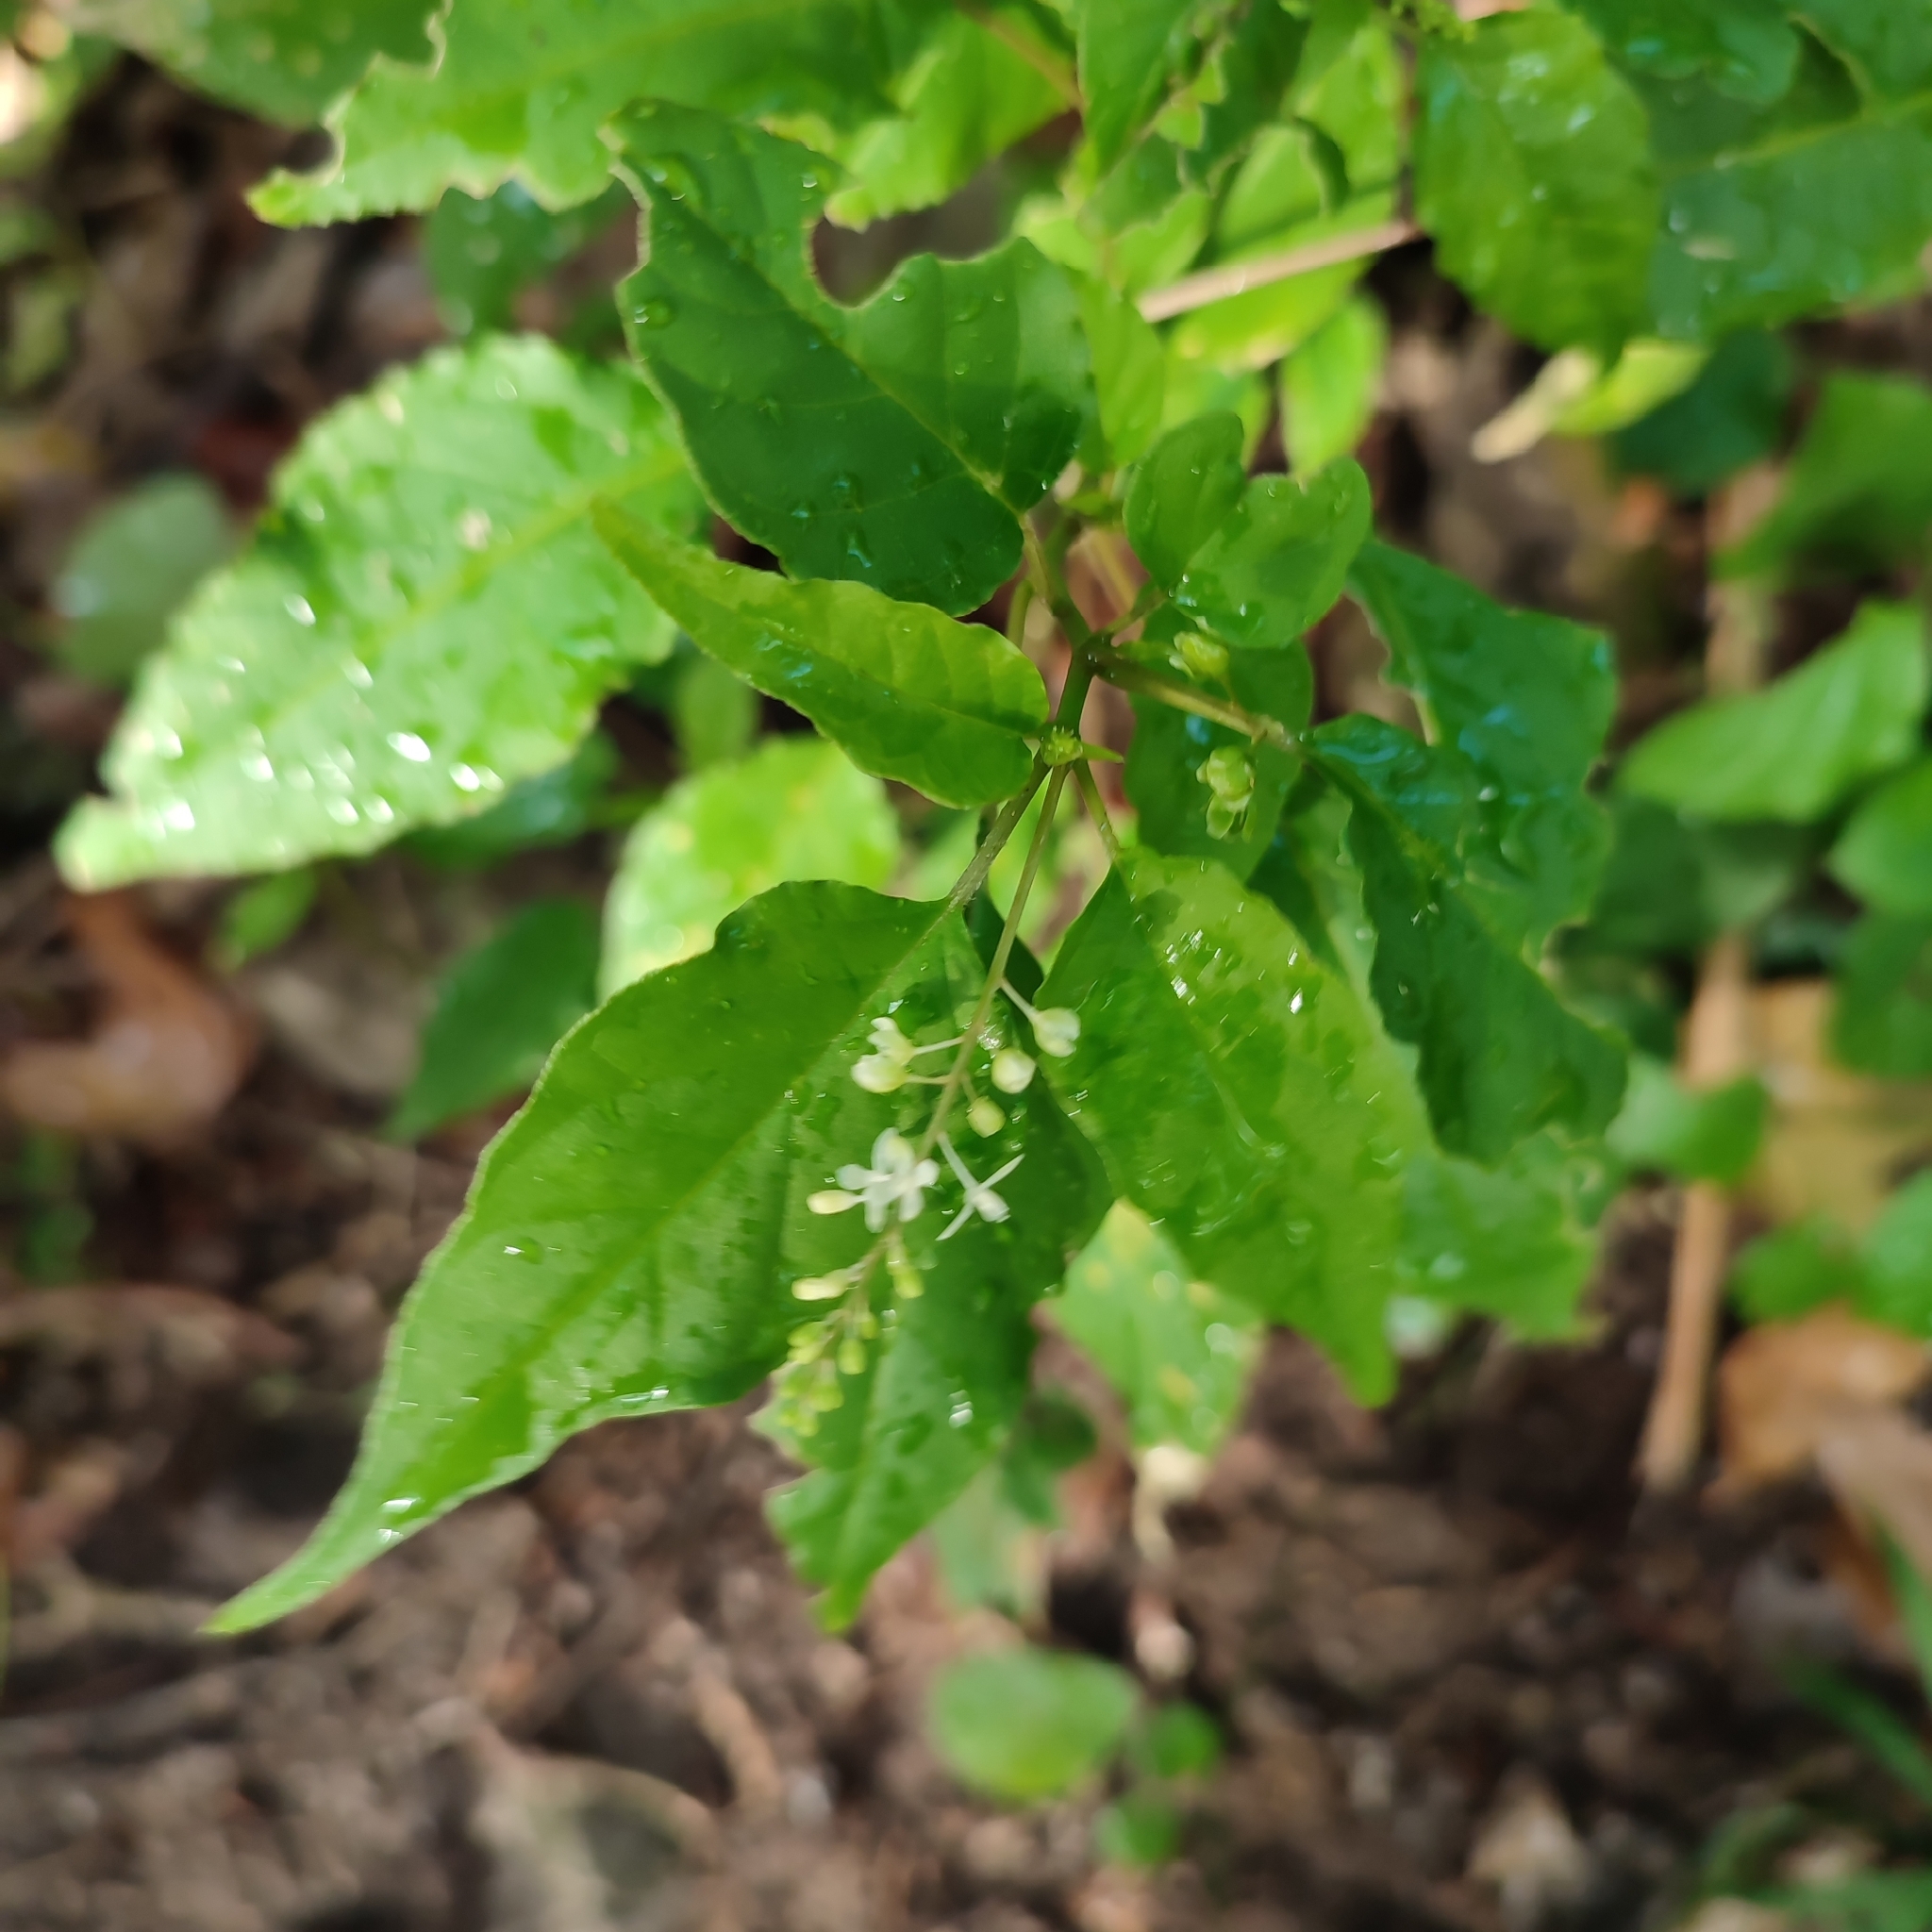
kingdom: Plantae
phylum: Tracheophyta
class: Magnoliopsida
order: Caryophyllales
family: Phytolaccaceae
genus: Rivina
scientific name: Rivina humilis
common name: Rougeplant
